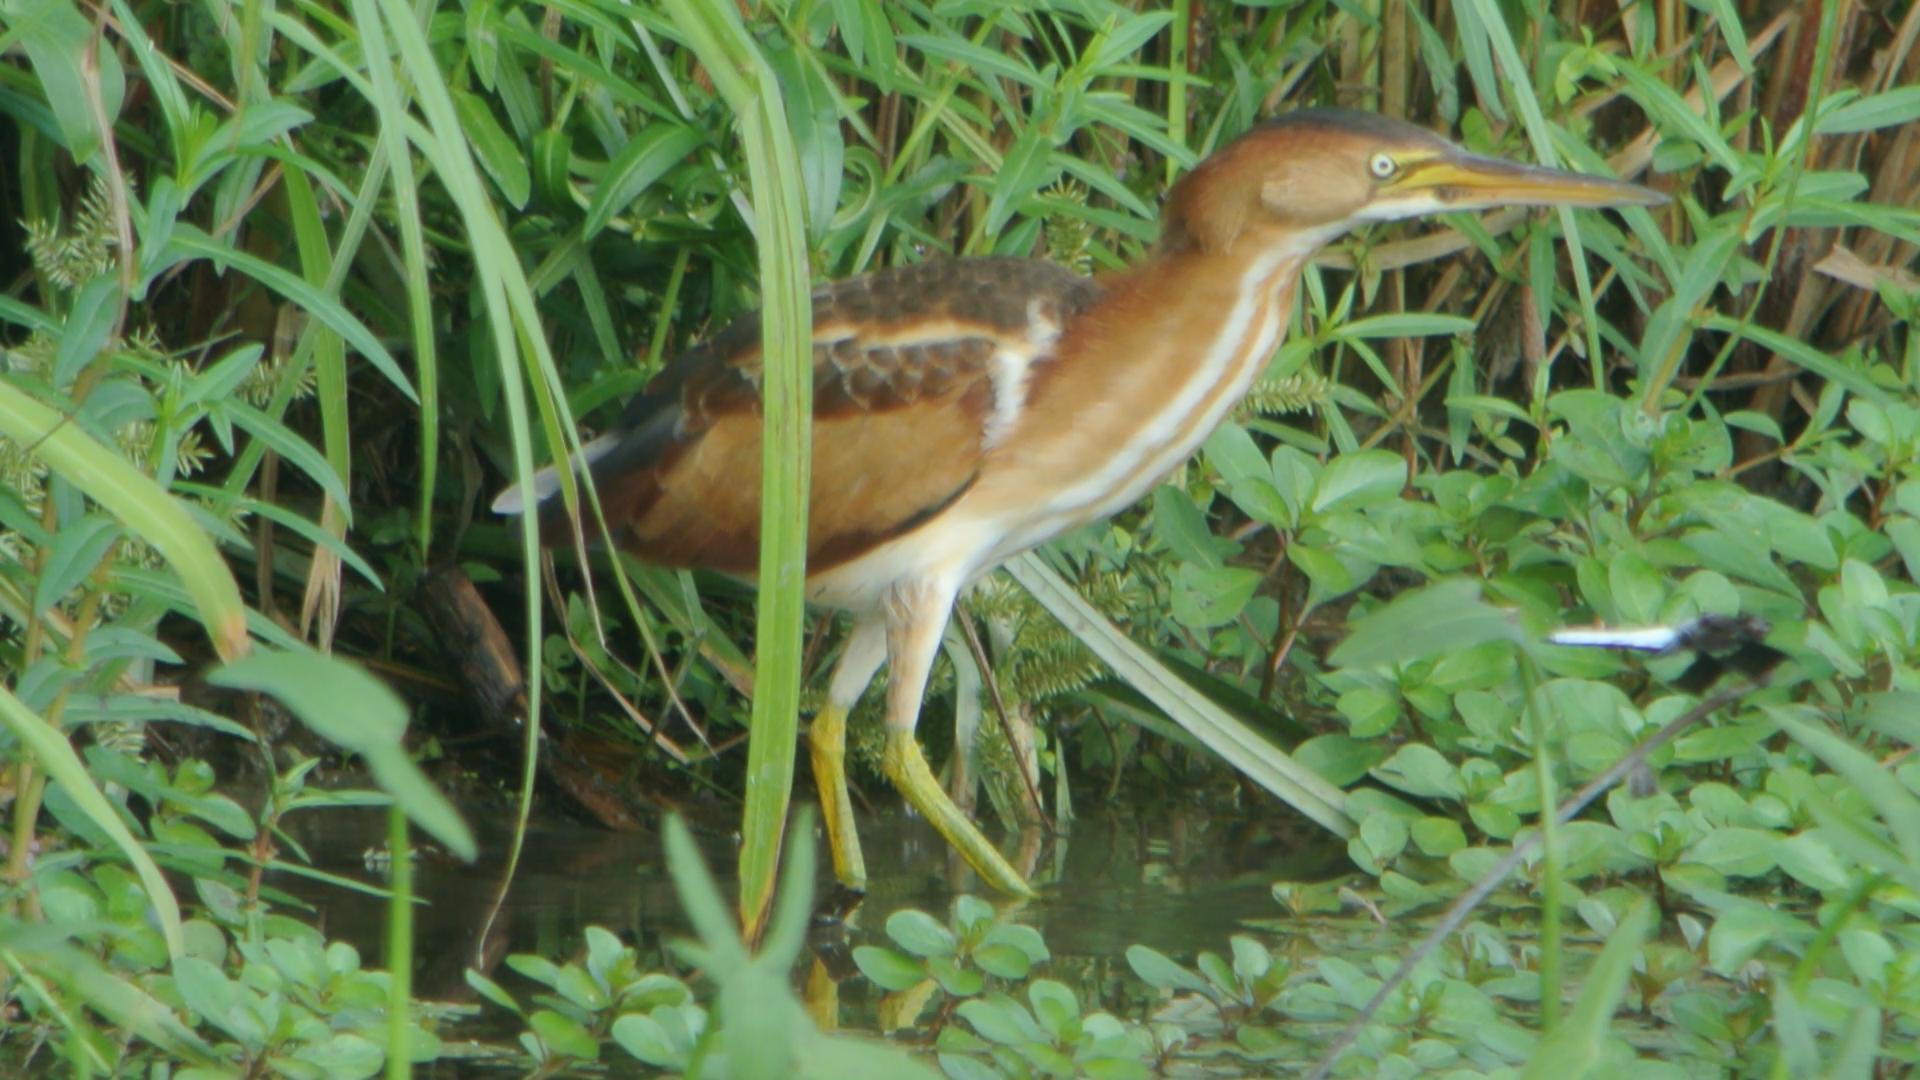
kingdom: Animalia
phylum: Chordata
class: Aves
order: Pelecaniformes
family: Ardeidae
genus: Ixobrychus
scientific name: Ixobrychus exilis
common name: Least bittern
